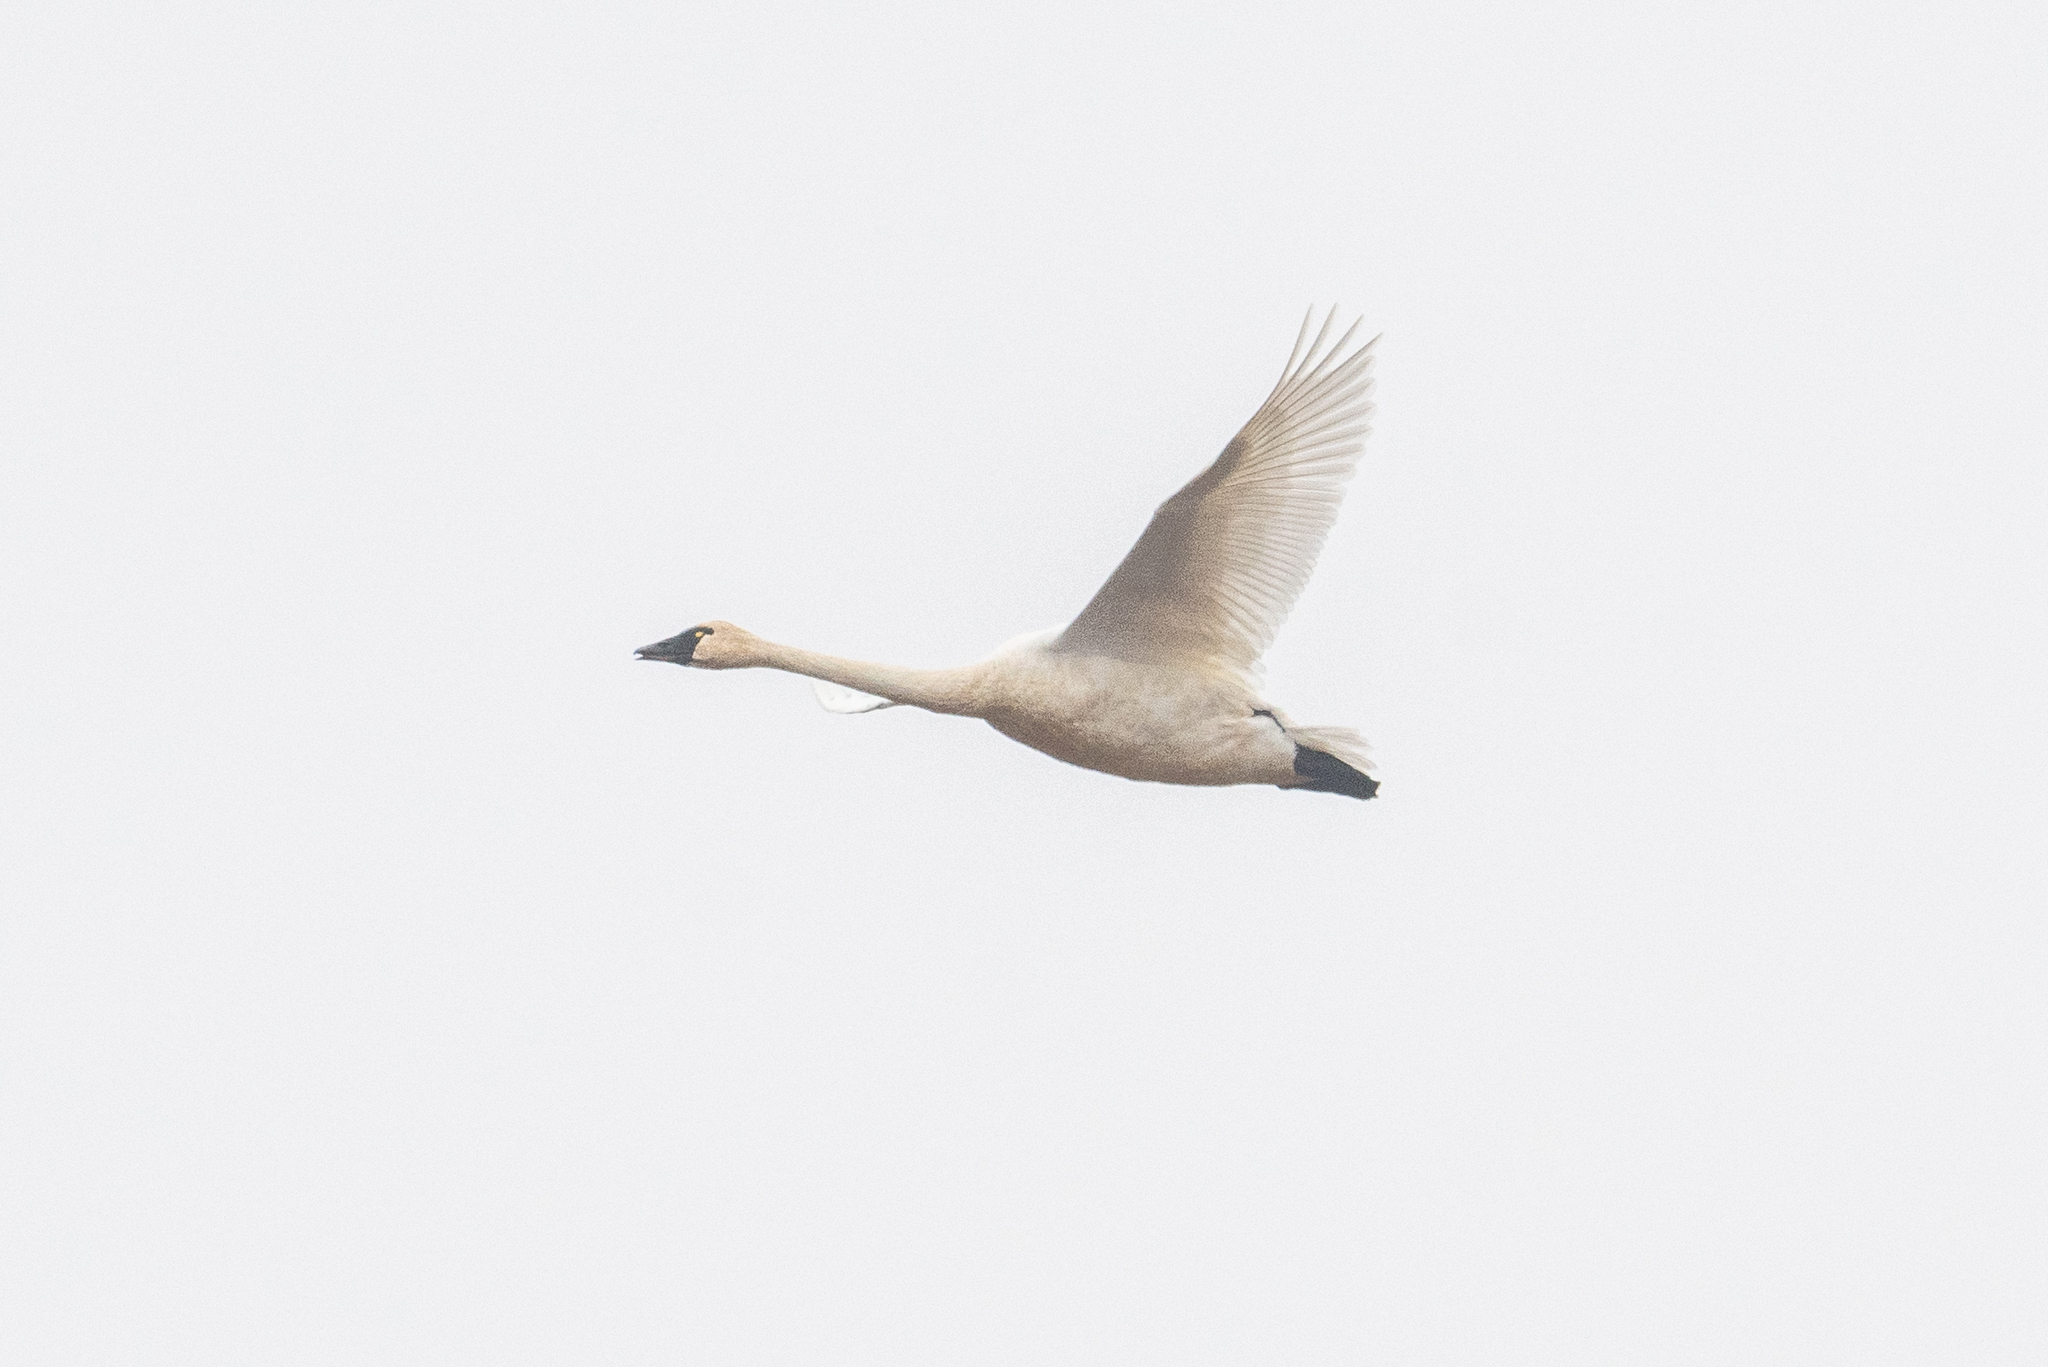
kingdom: Animalia
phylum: Chordata
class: Aves
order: Anseriformes
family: Anatidae
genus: Cygnus
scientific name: Cygnus columbianus
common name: Tundra swan
